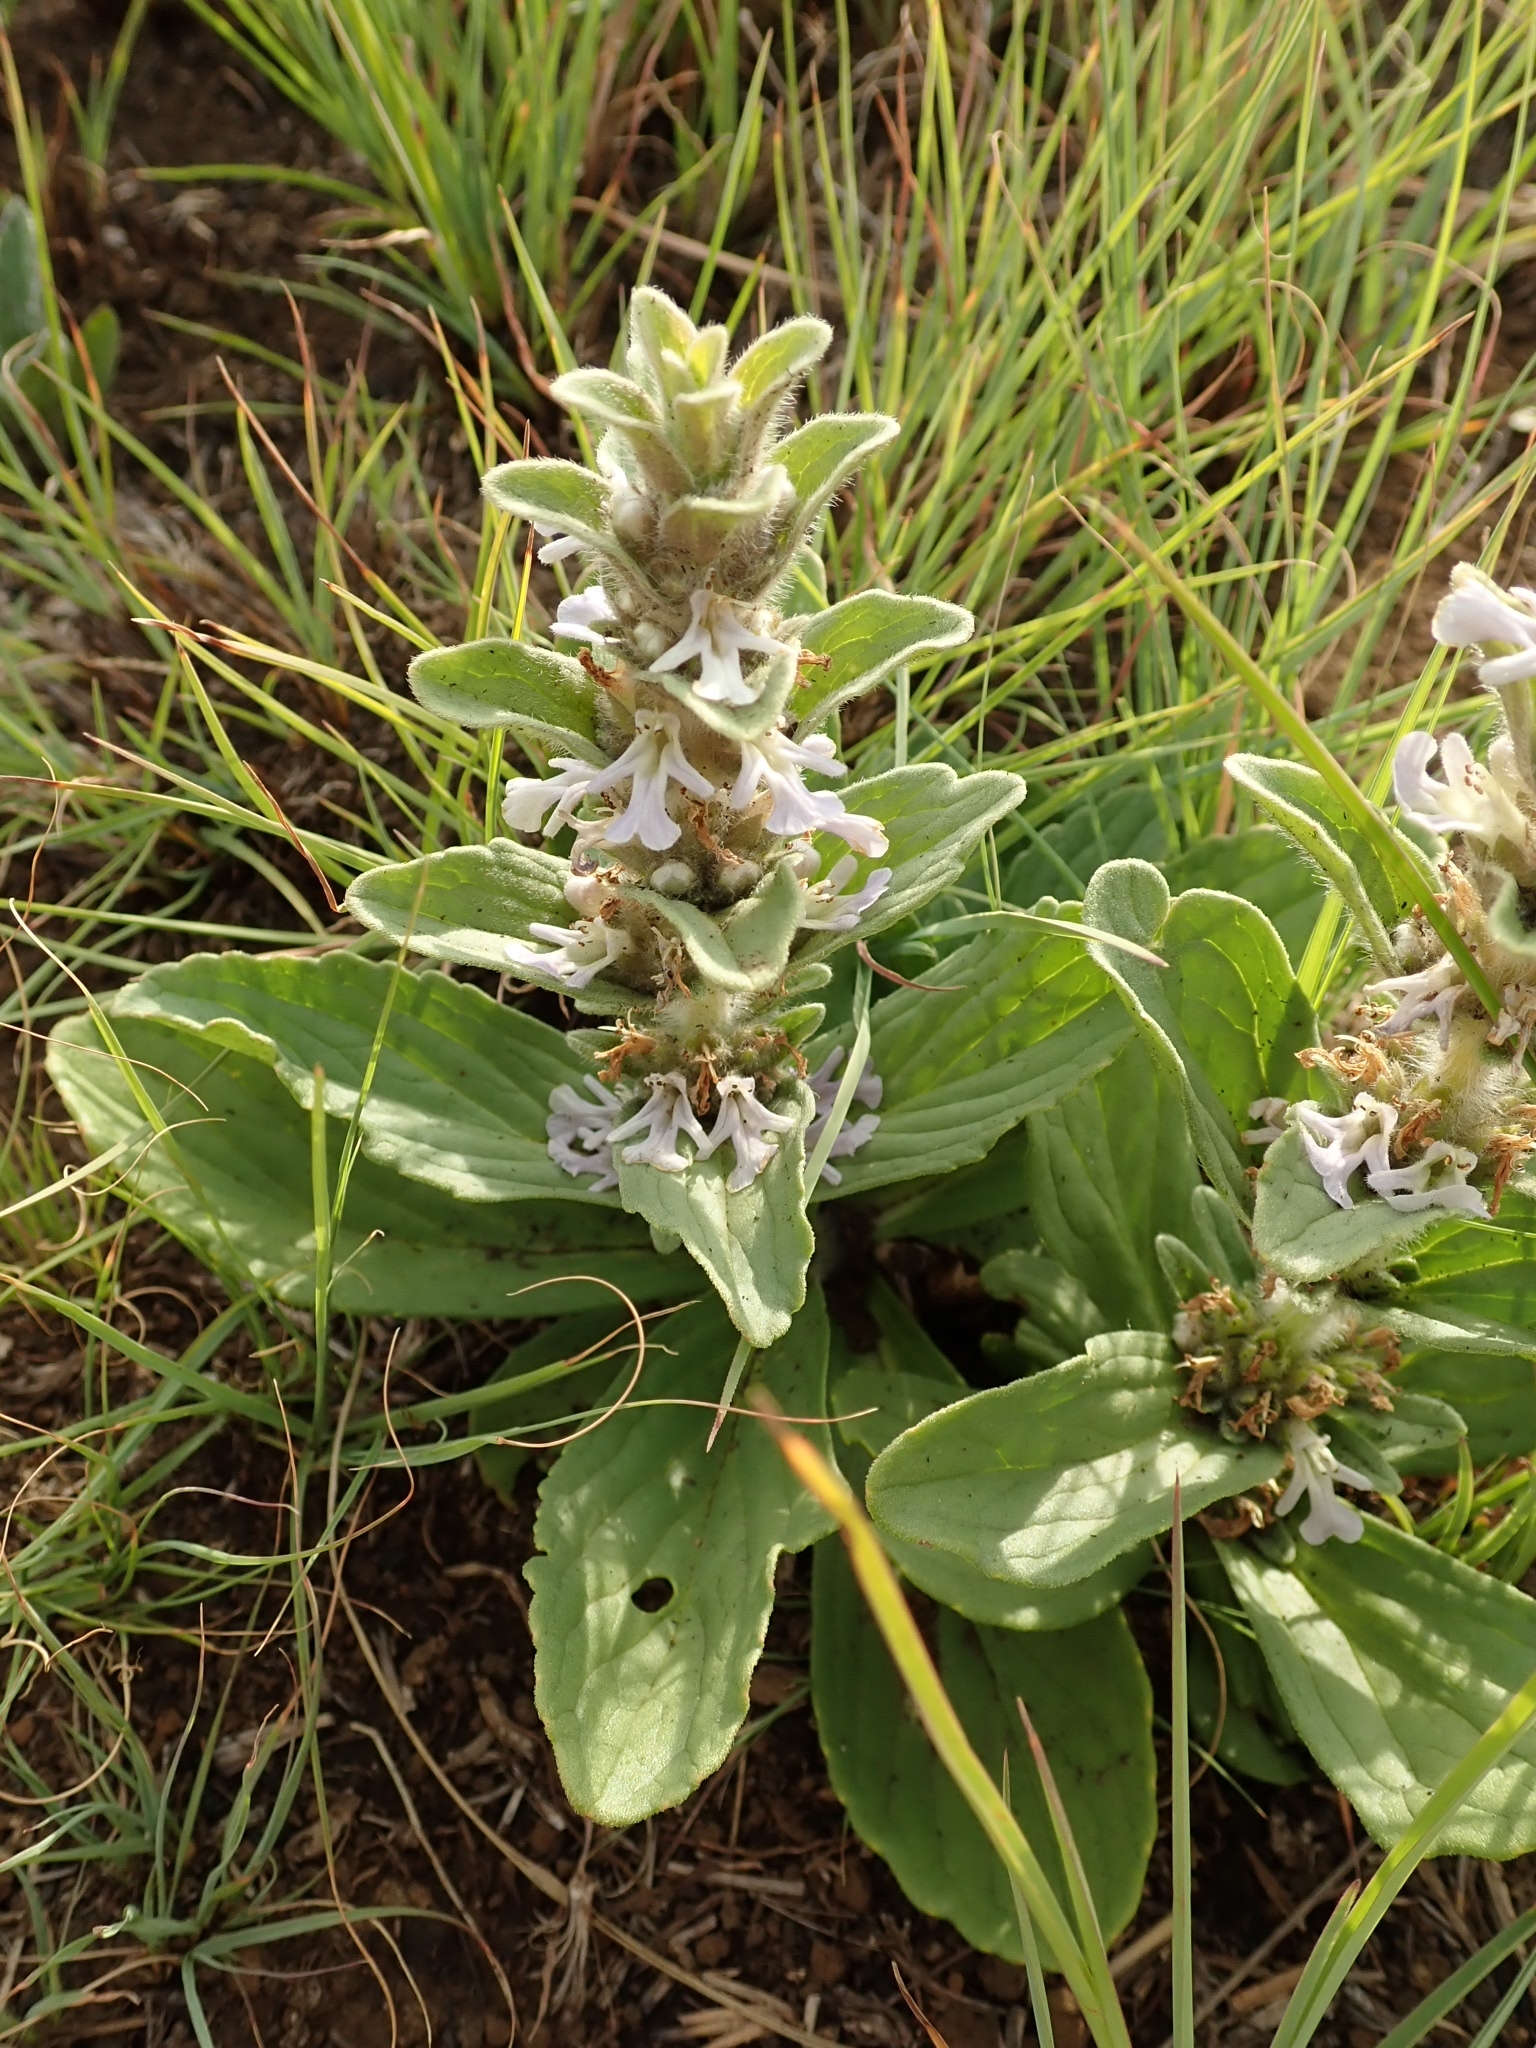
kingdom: Plantae
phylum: Tracheophyta
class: Magnoliopsida
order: Lamiales
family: Lamiaceae
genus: Ajuga
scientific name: Ajuga ophrydis
